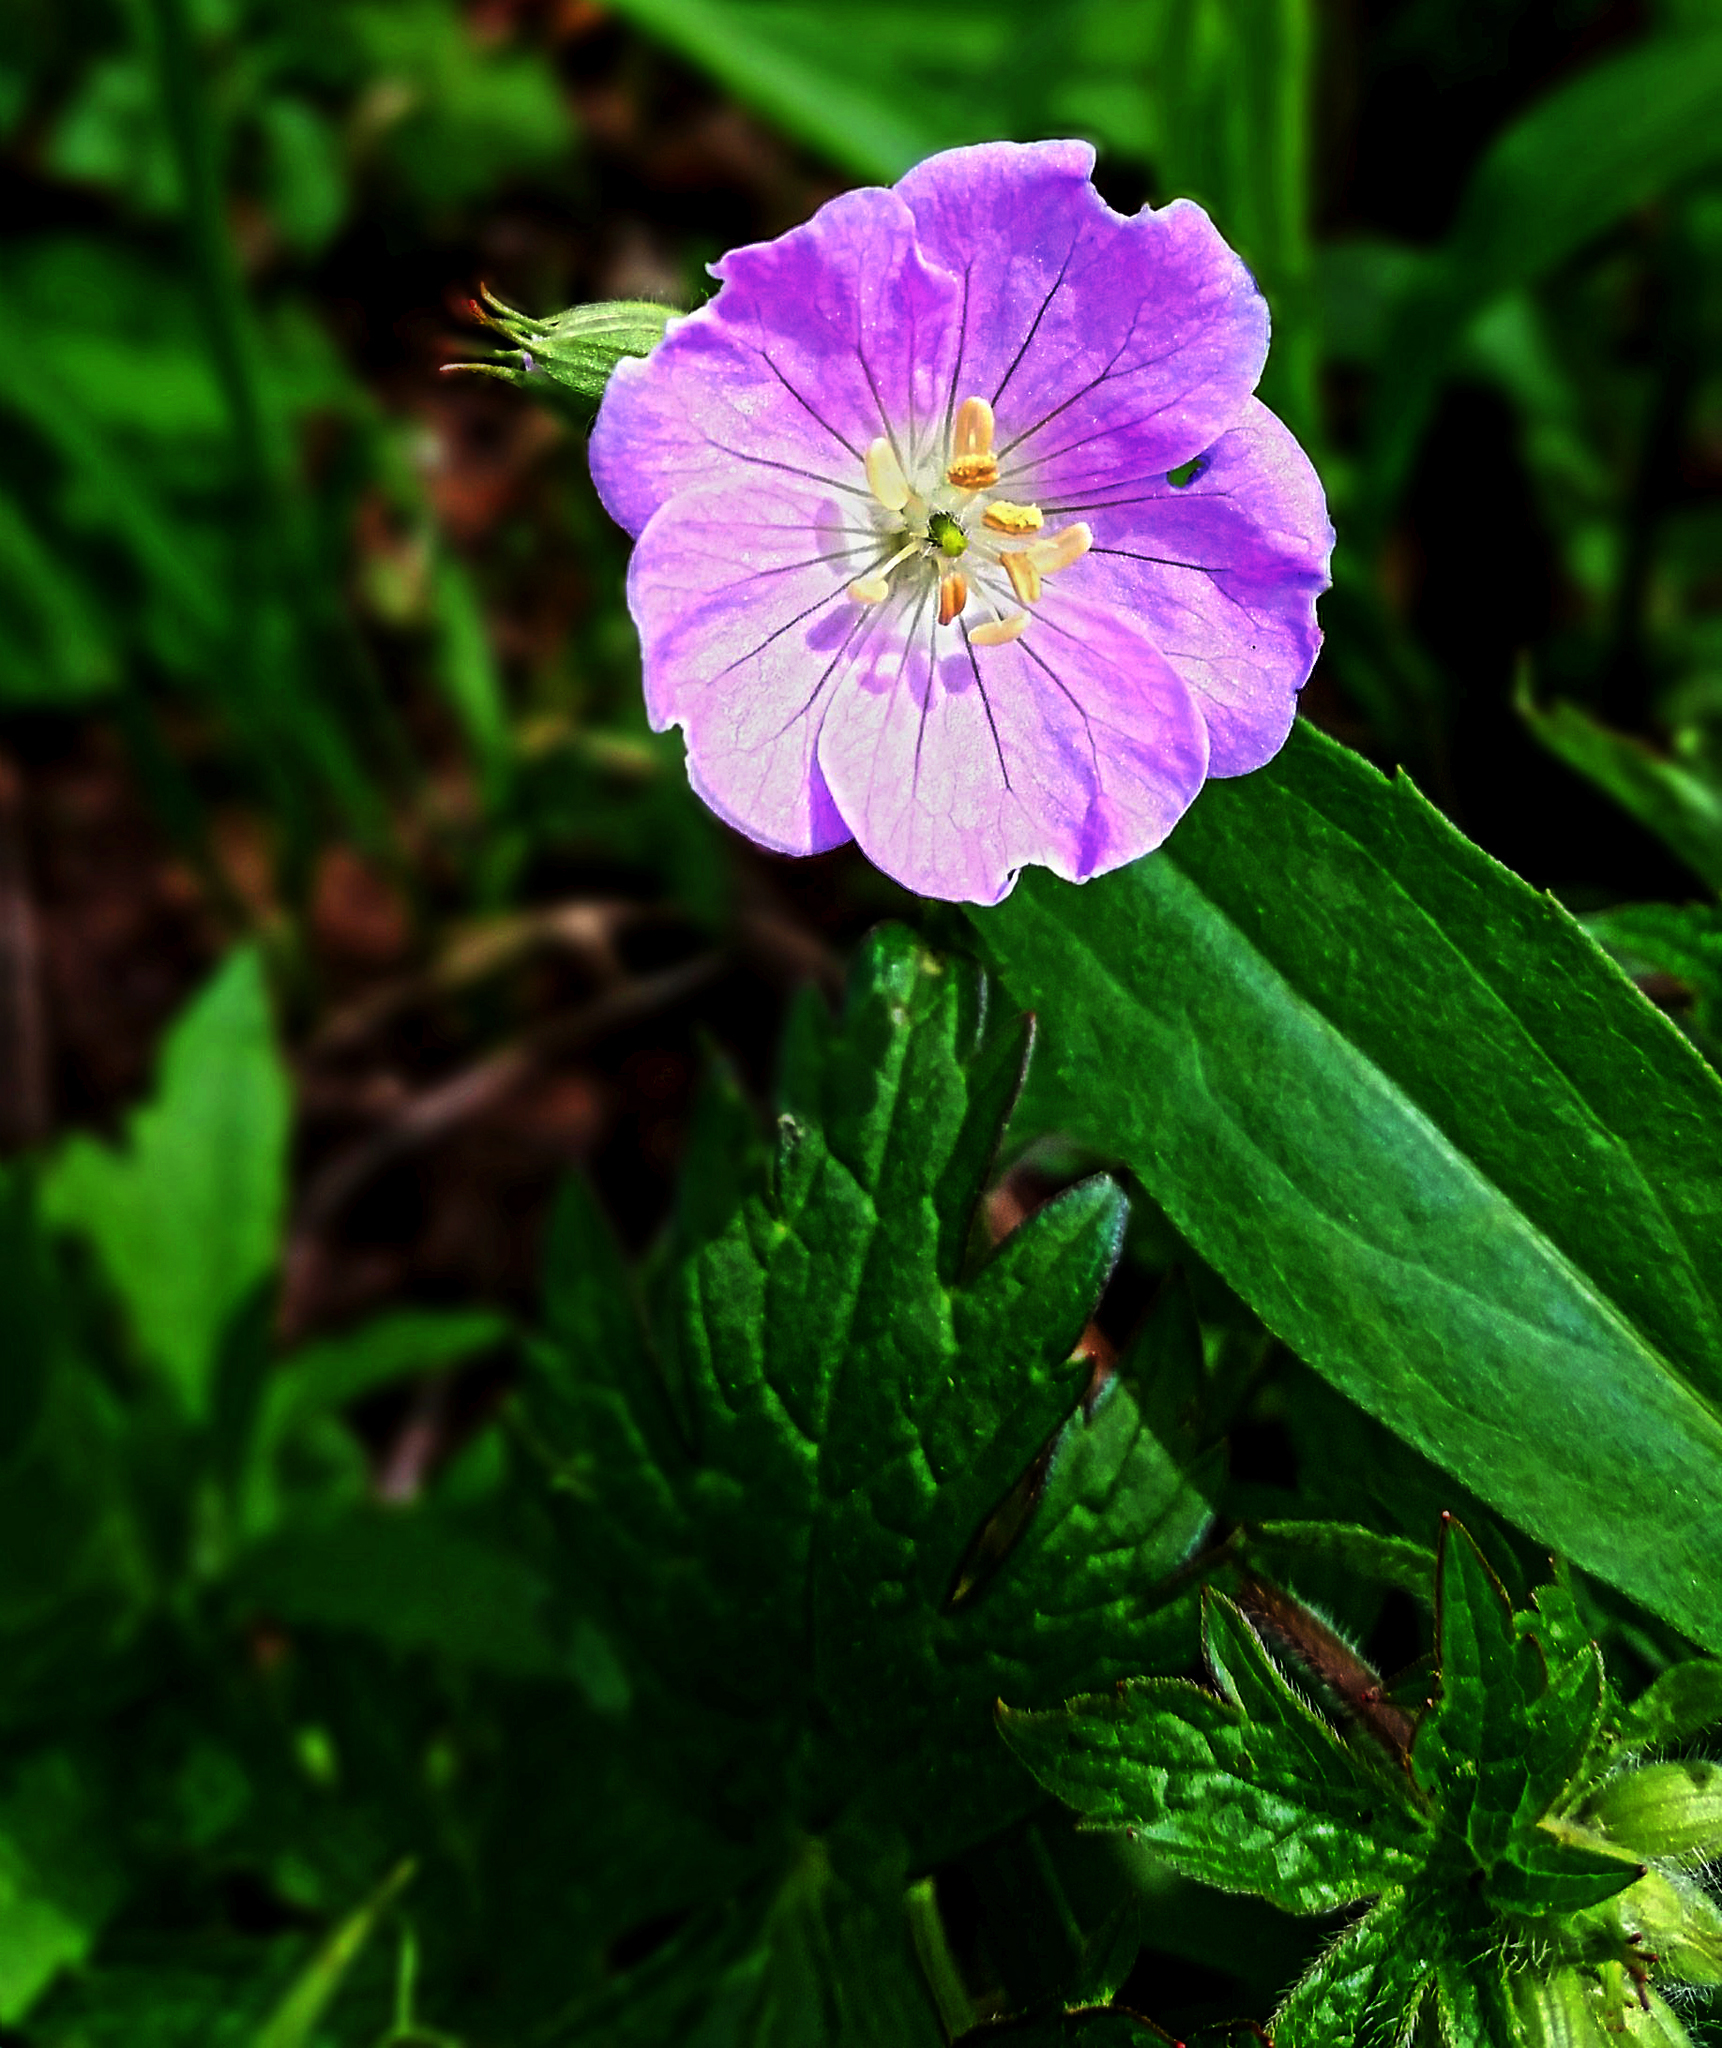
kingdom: Plantae
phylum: Tracheophyta
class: Magnoliopsida
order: Geraniales
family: Geraniaceae
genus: Geranium
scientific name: Geranium maculatum
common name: Spotted geranium
